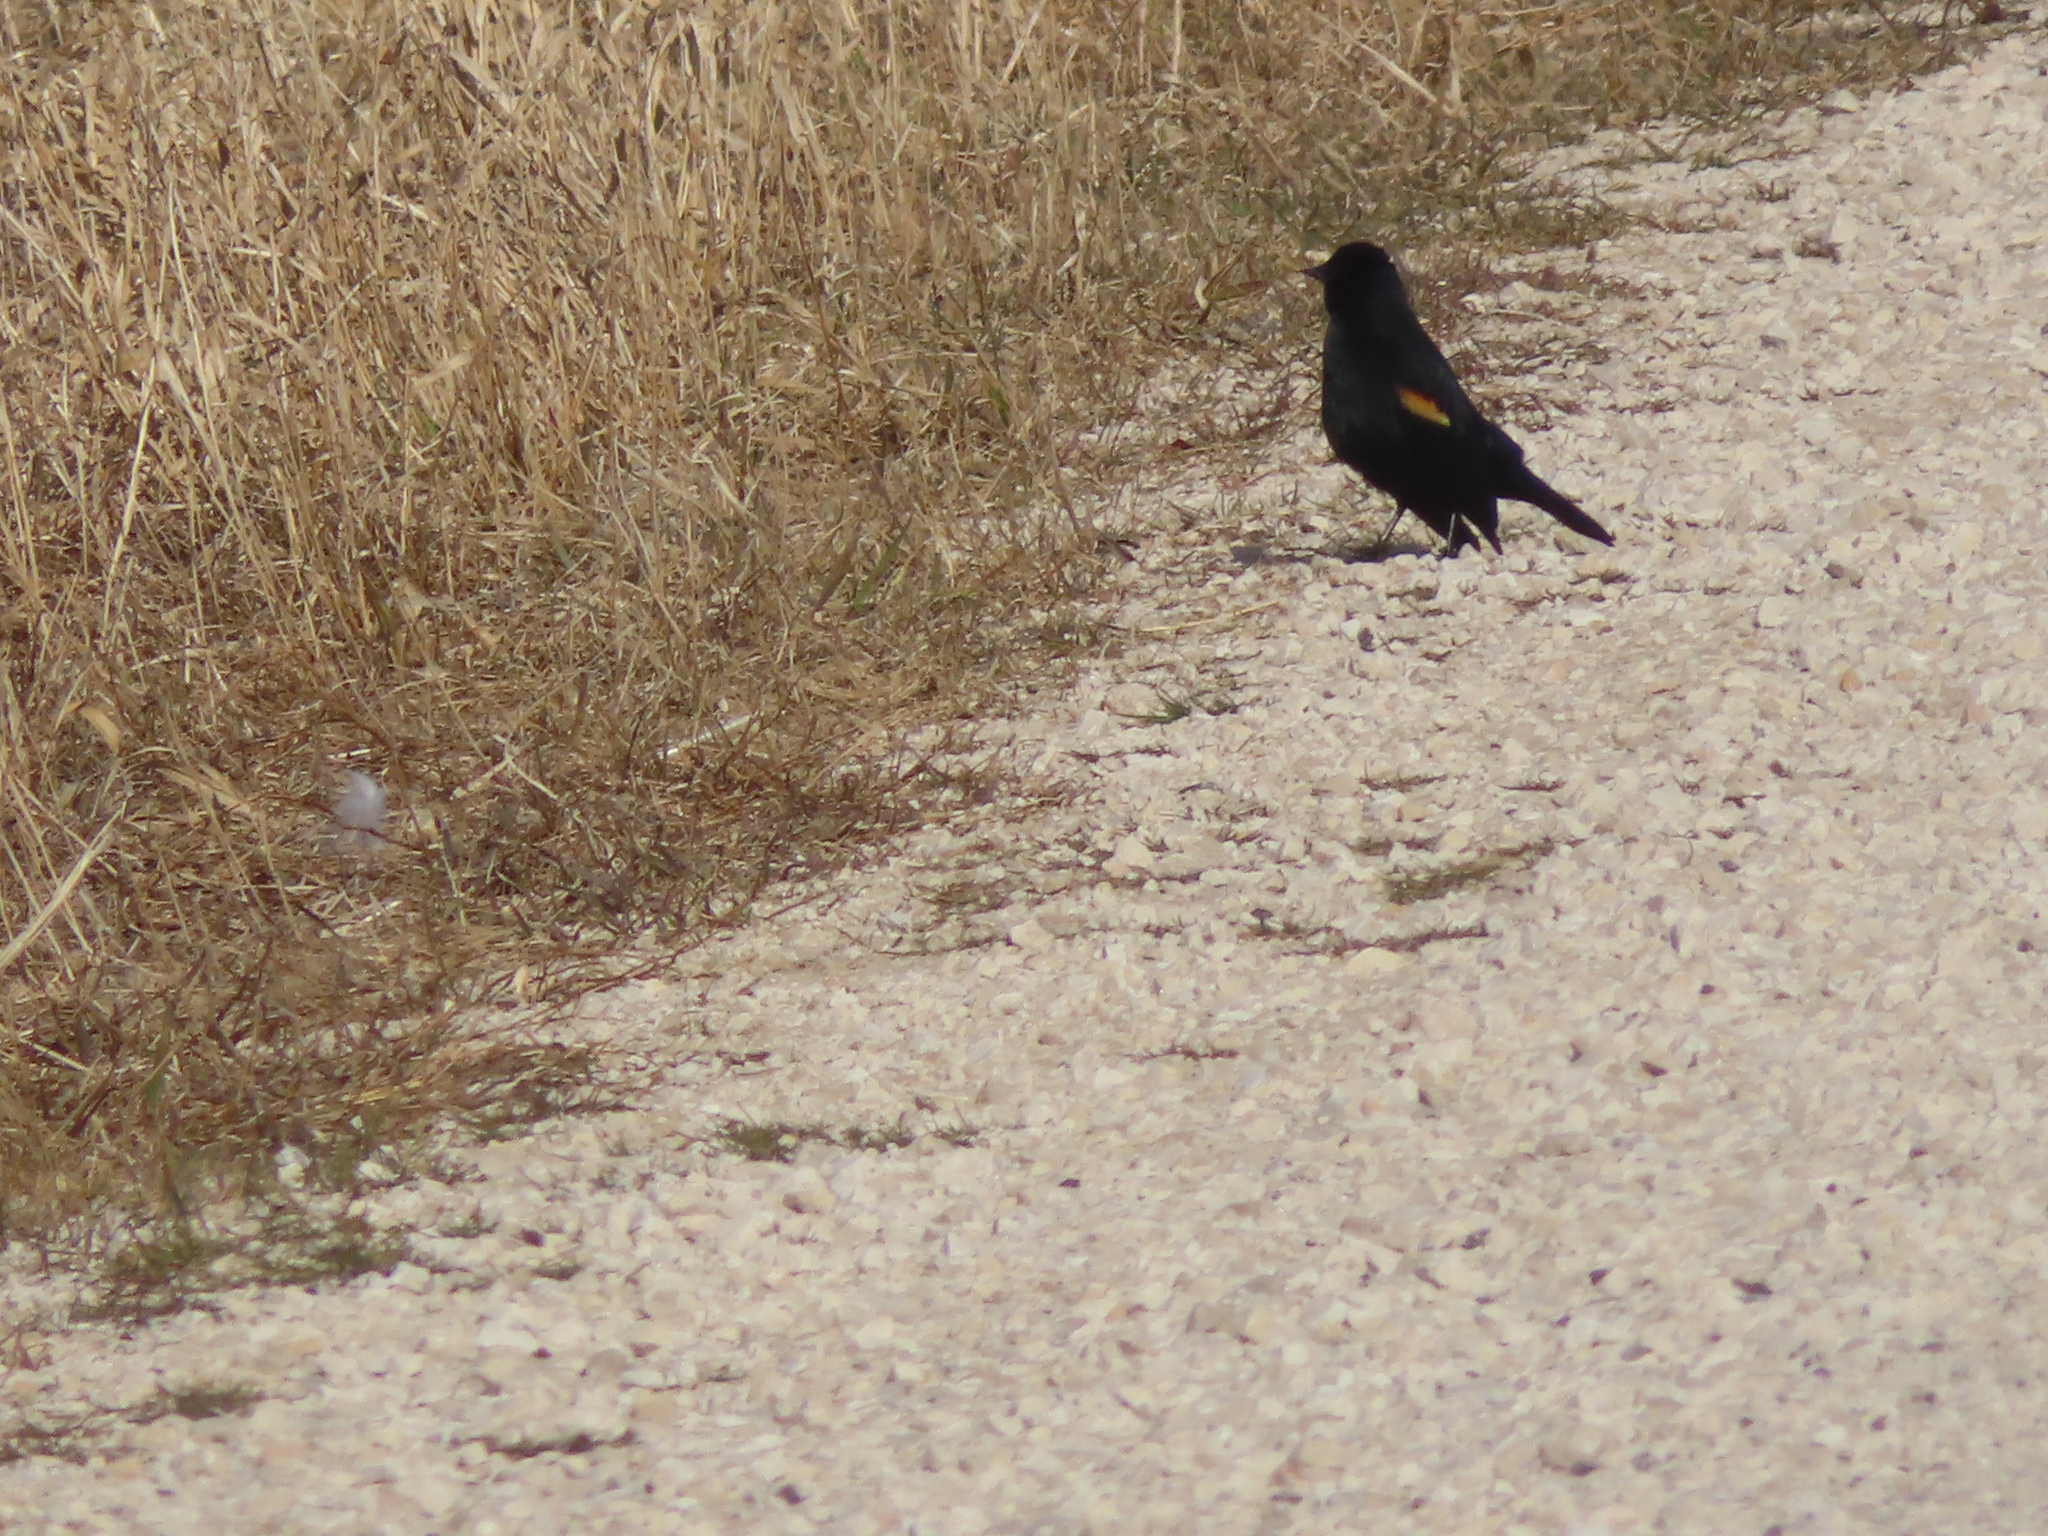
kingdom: Animalia
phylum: Chordata
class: Aves
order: Passeriformes
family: Icteridae
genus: Agelaius
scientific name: Agelaius phoeniceus
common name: Red-winged blackbird
